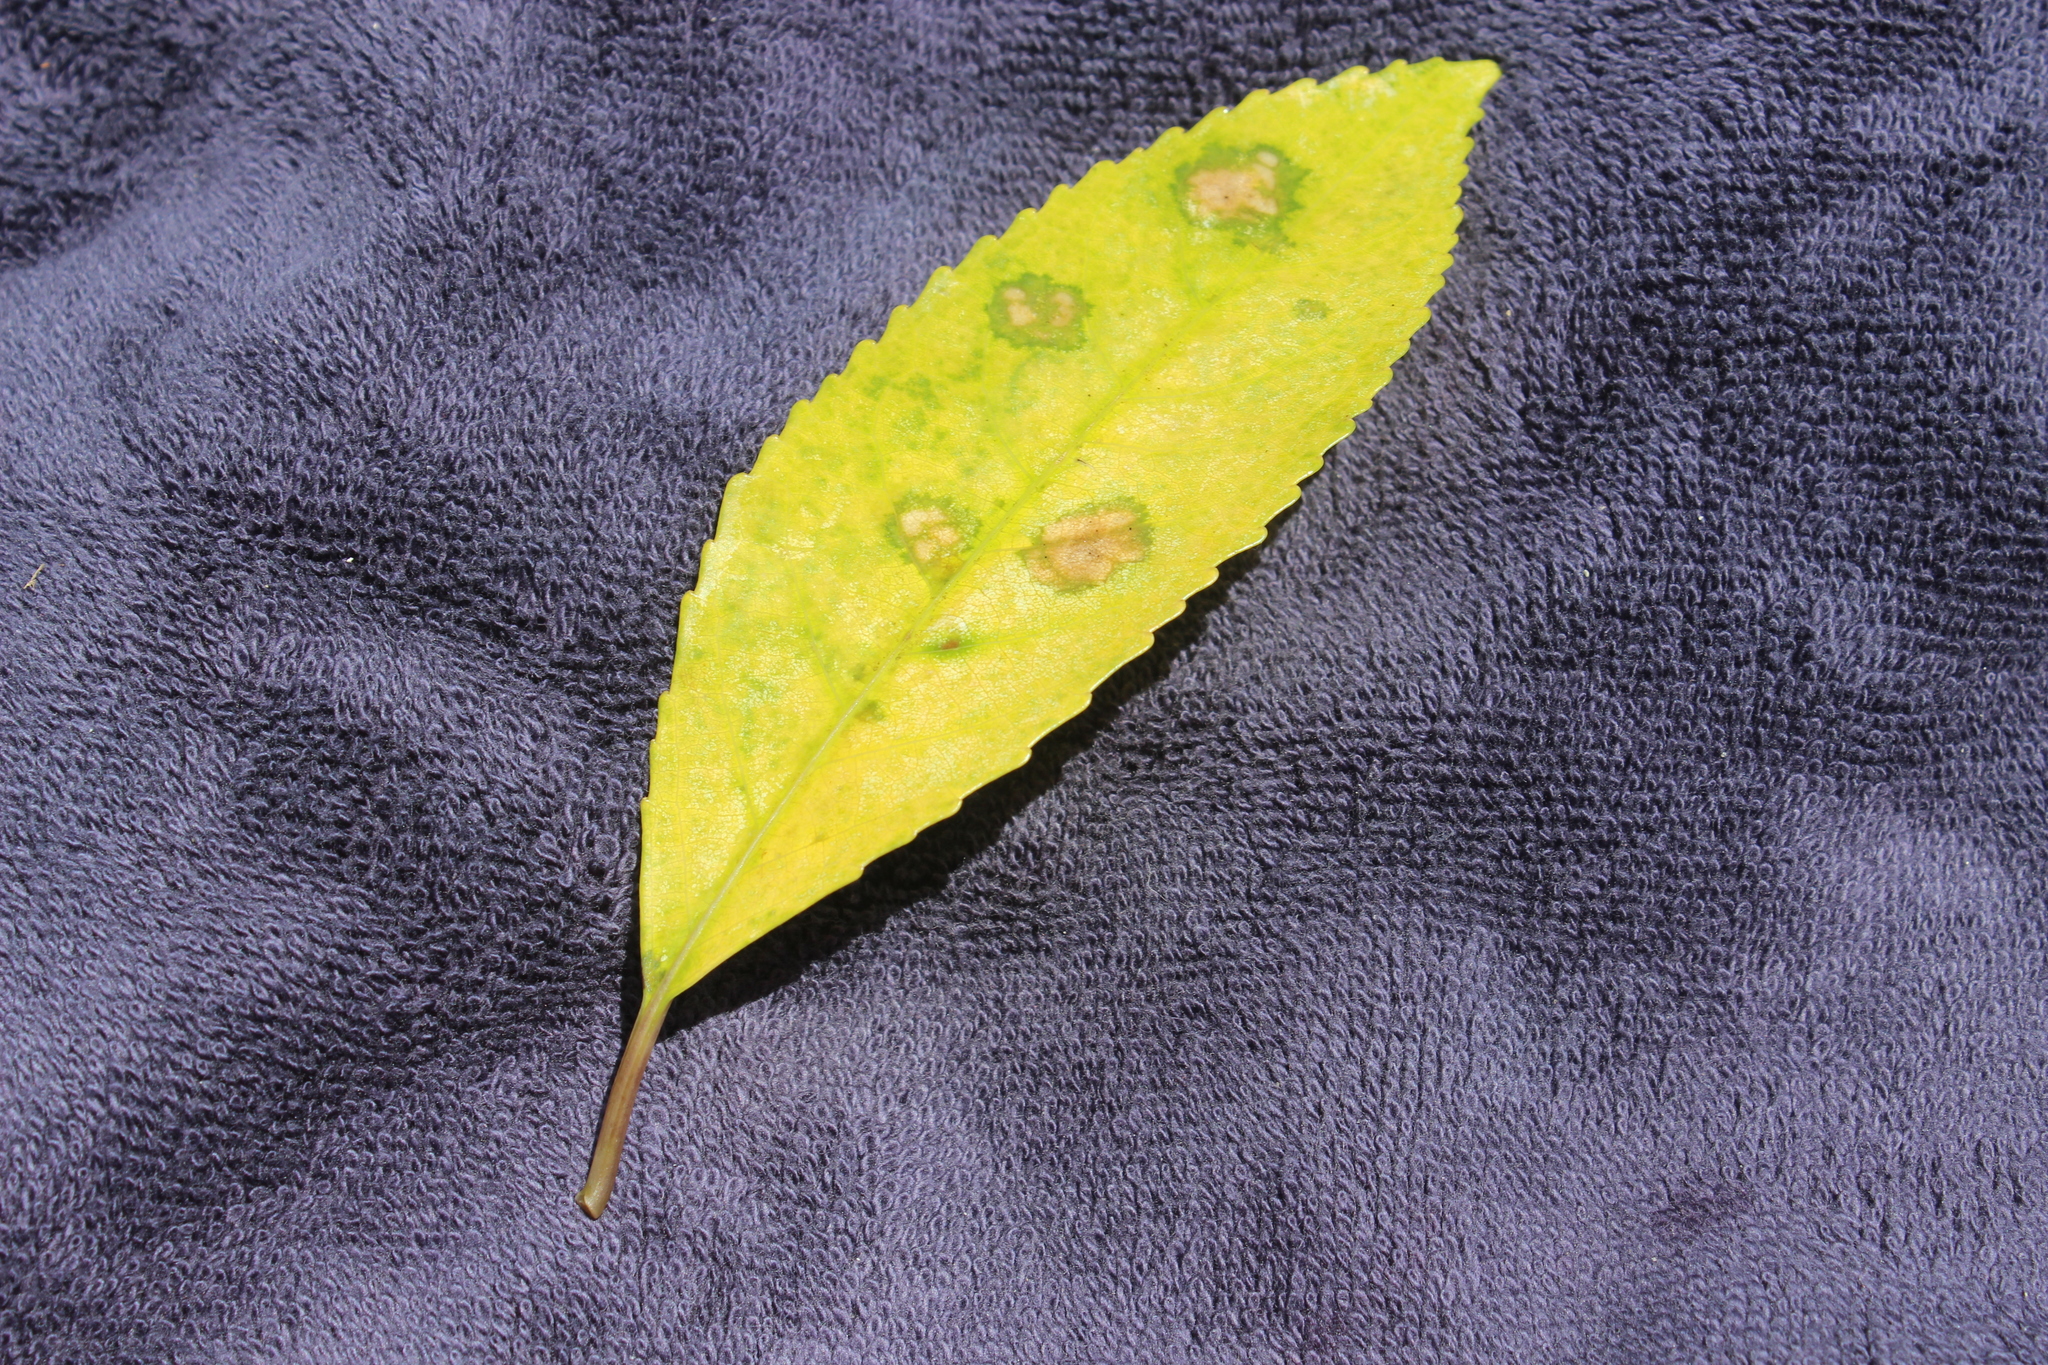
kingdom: Plantae
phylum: Tracheophyta
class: Magnoliopsida
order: Malpighiales
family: Violaceae
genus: Melicytus
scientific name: Melicytus ramiflorus
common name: Mahoe
